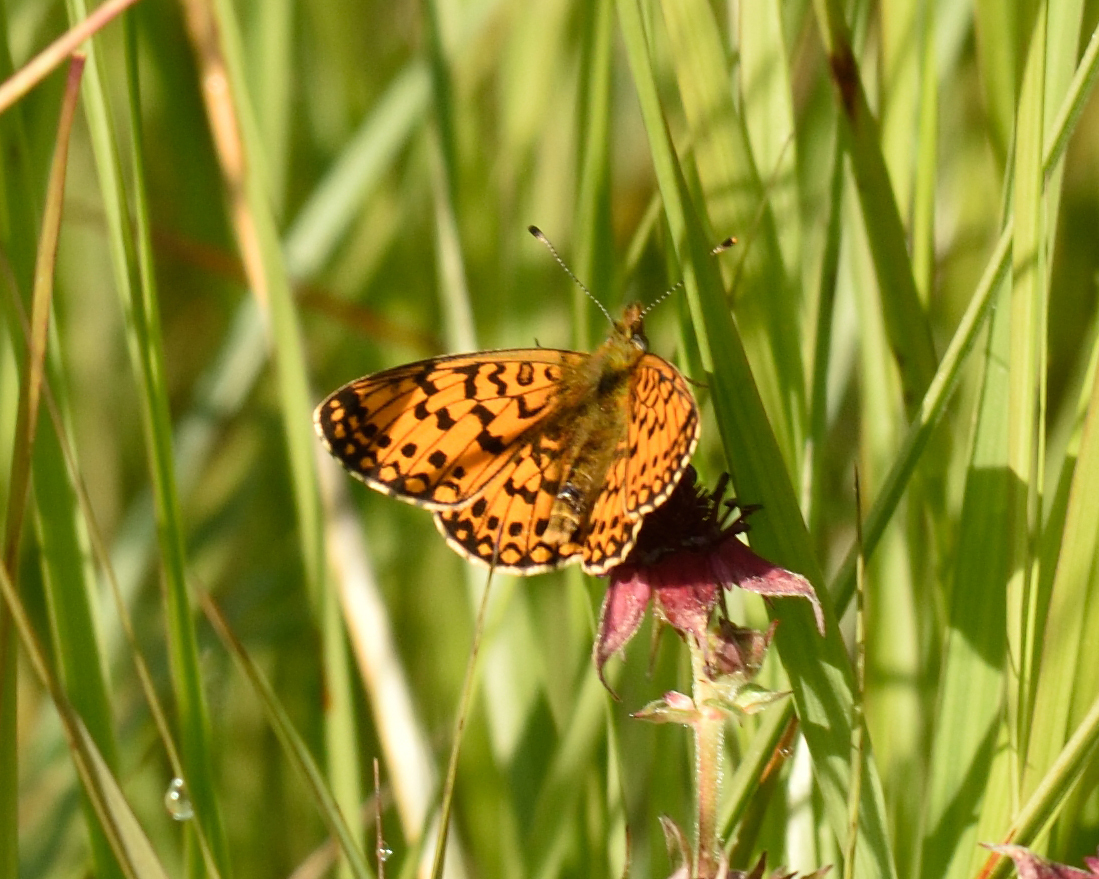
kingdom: Animalia
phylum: Arthropoda
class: Insecta
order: Lepidoptera
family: Nymphalidae
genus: Boloria
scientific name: Boloria selene
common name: Small pearl-bordered fritillary
